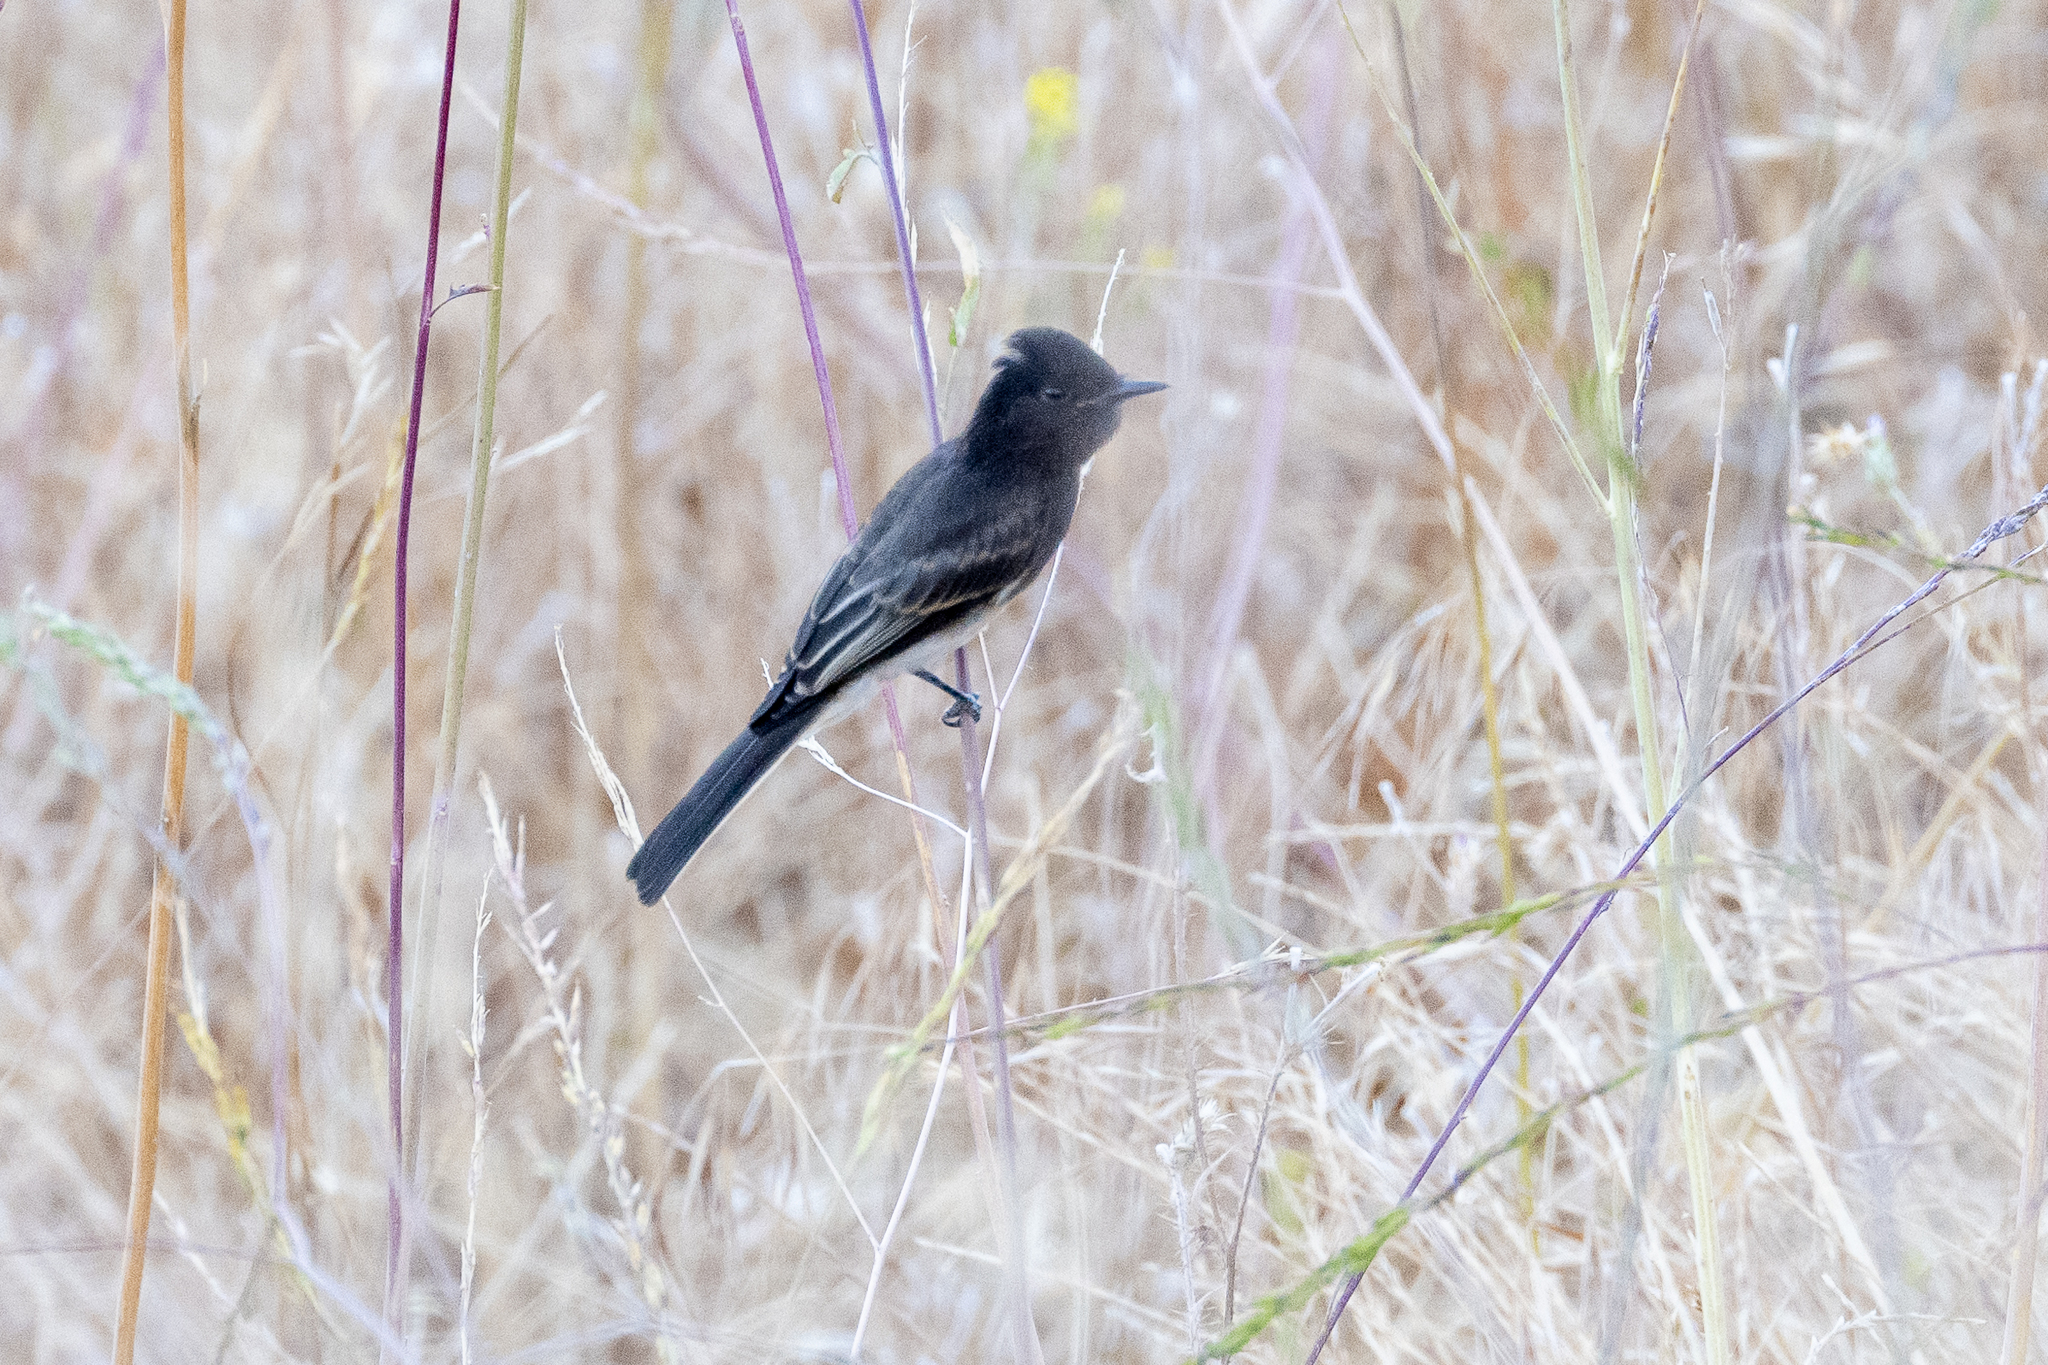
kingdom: Animalia
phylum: Chordata
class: Aves
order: Passeriformes
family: Tyrannidae
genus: Sayornis
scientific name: Sayornis nigricans
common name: Black phoebe
